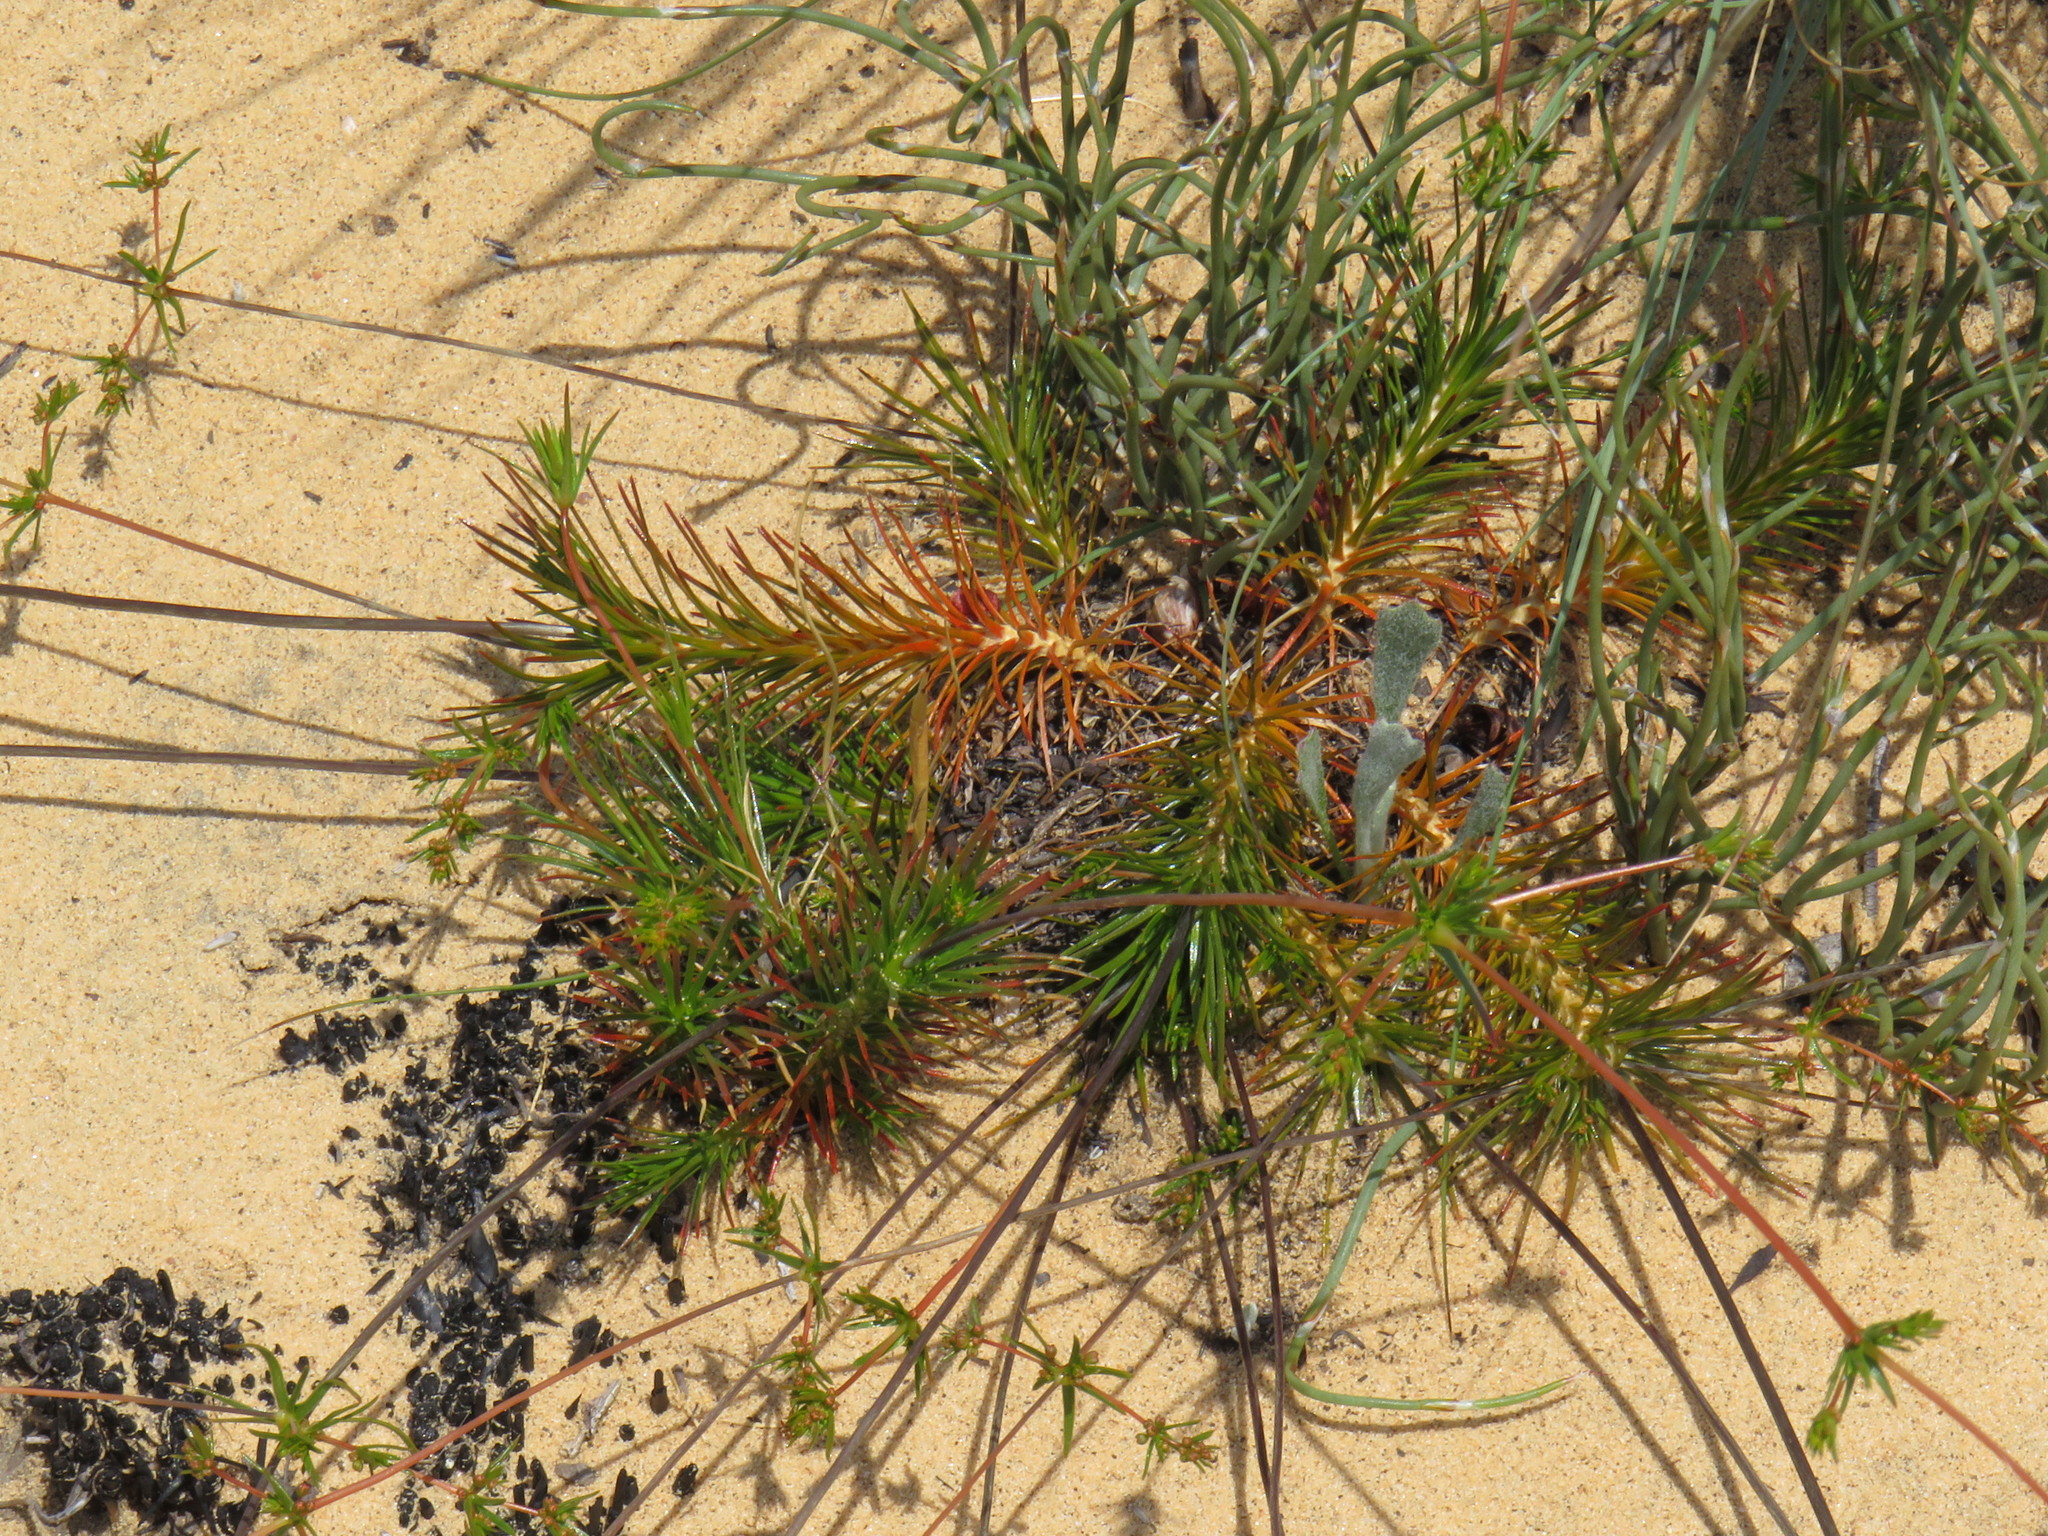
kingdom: Plantae
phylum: Tracheophyta
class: Magnoliopsida
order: Caryophyllales
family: Molluginaceae
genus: Adenogramma
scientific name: Adenogramma rigida
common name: Rigid muggiegrass
